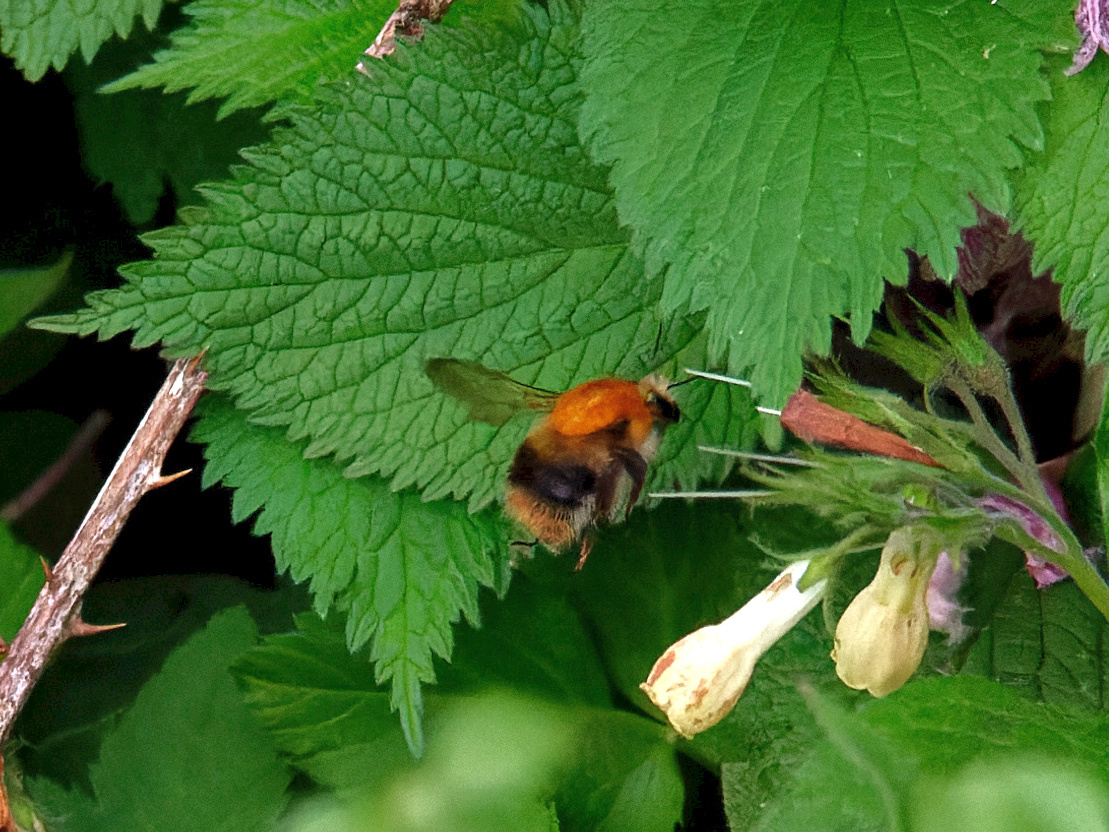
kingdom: Animalia
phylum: Arthropoda
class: Insecta
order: Hymenoptera
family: Apidae
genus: Bombus
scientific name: Bombus pascuorum
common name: Common carder bee
